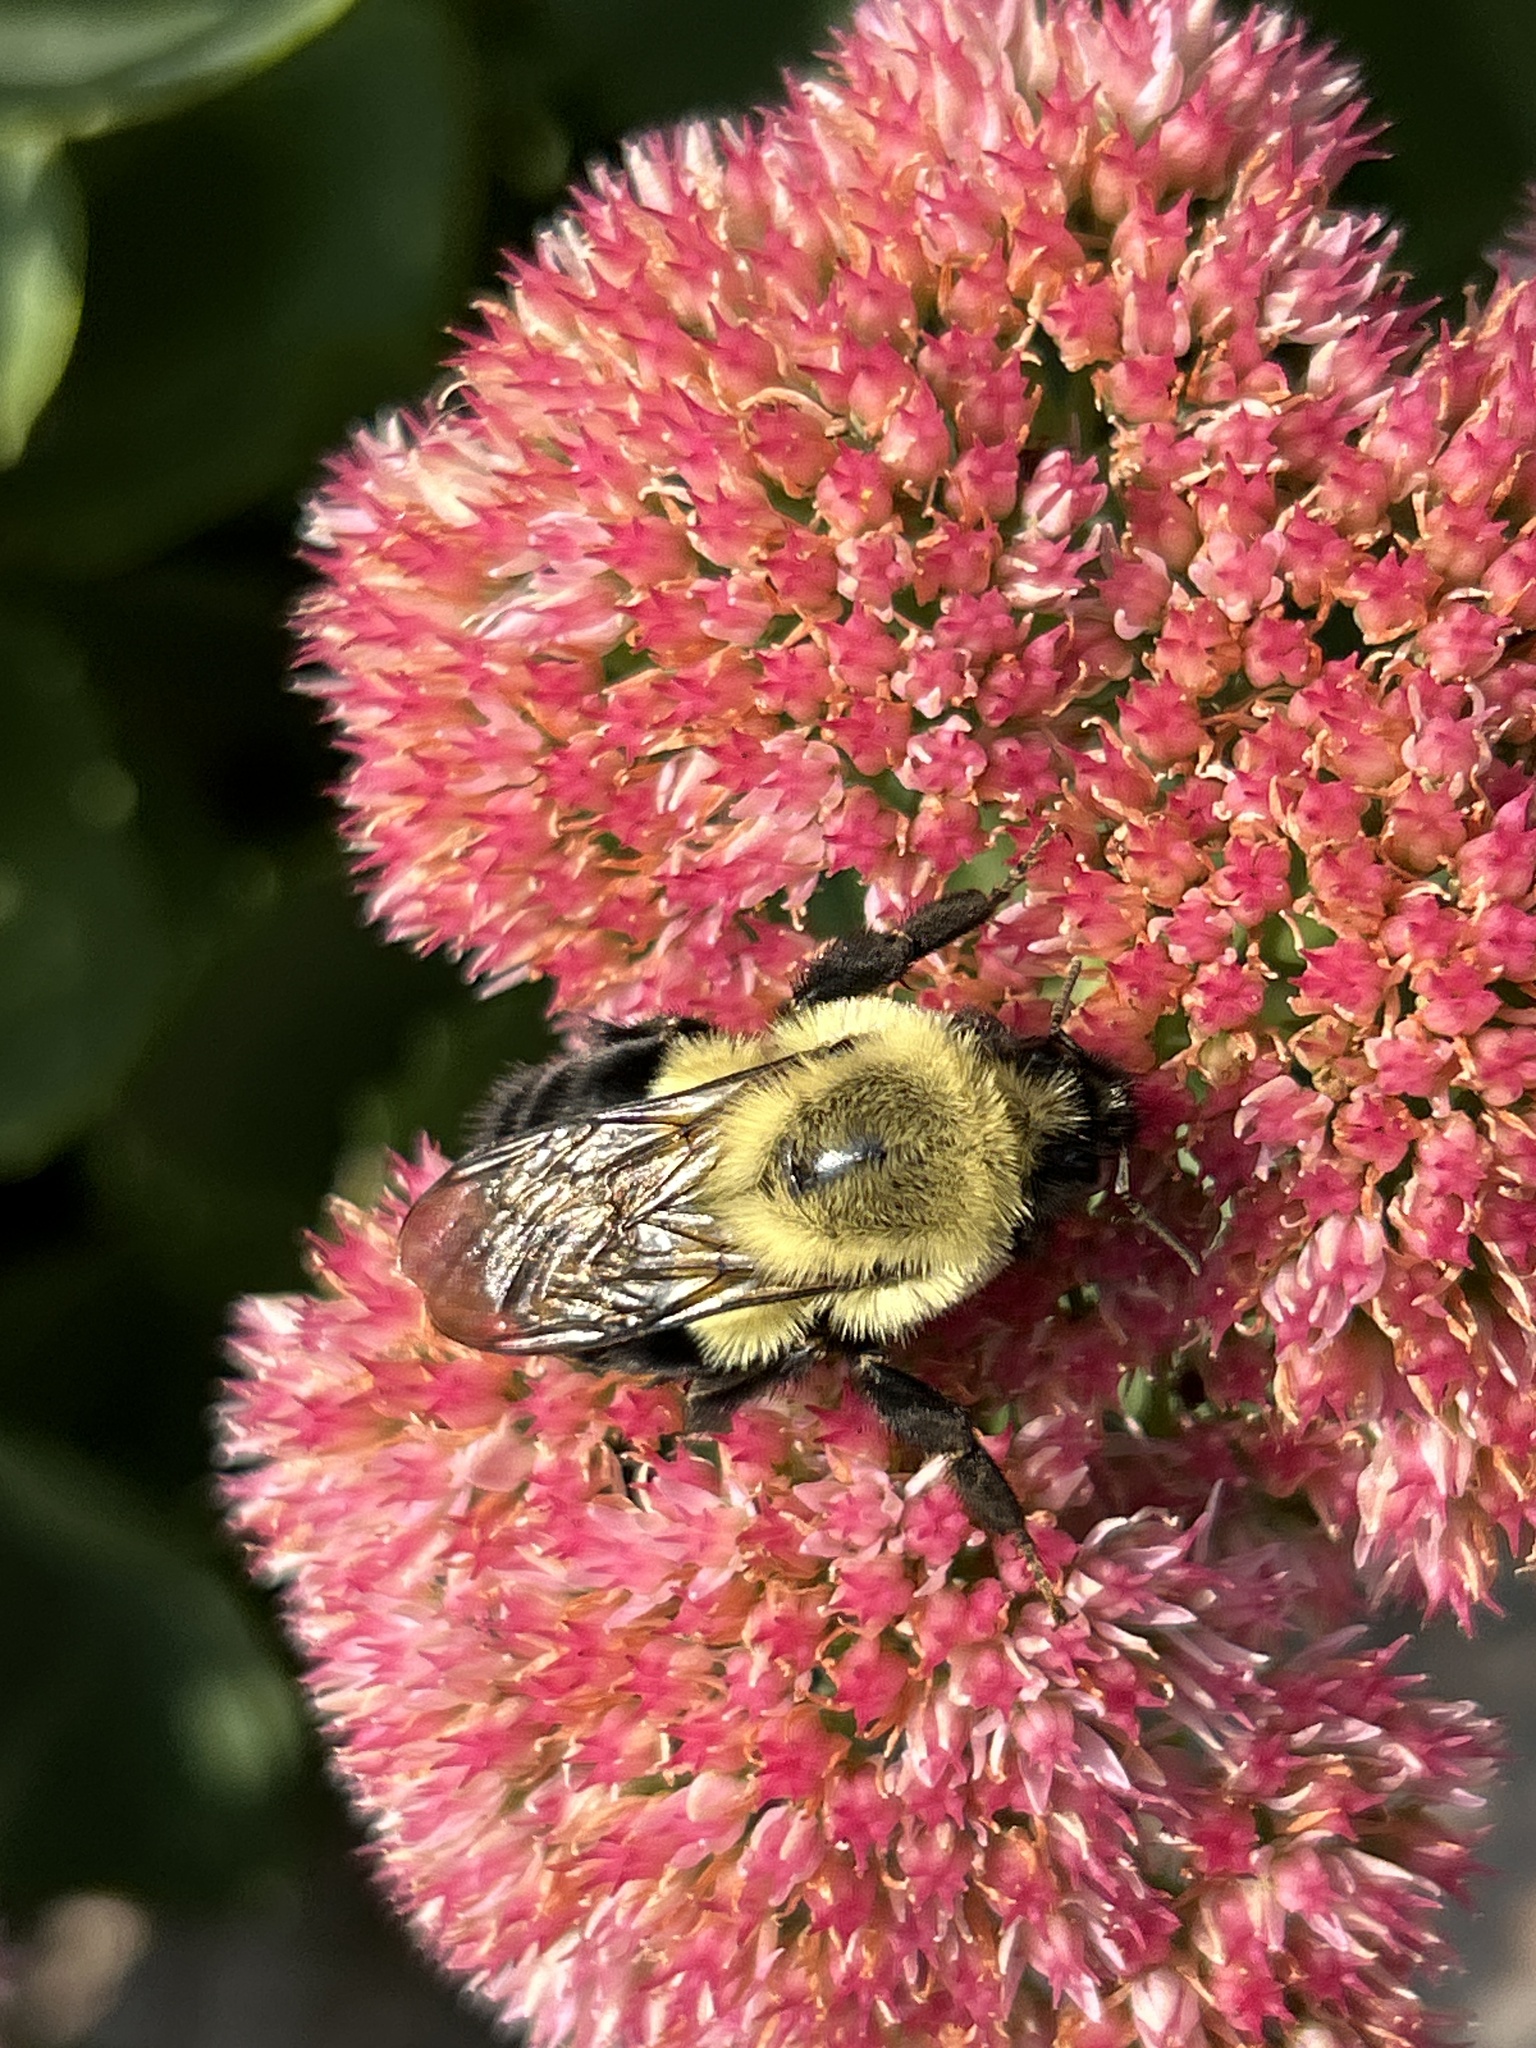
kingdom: Animalia
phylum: Arthropoda
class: Insecta
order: Hymenoptera
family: Apidae
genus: Bombus
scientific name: Bombus impatiens
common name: Common eastern bumble bee
